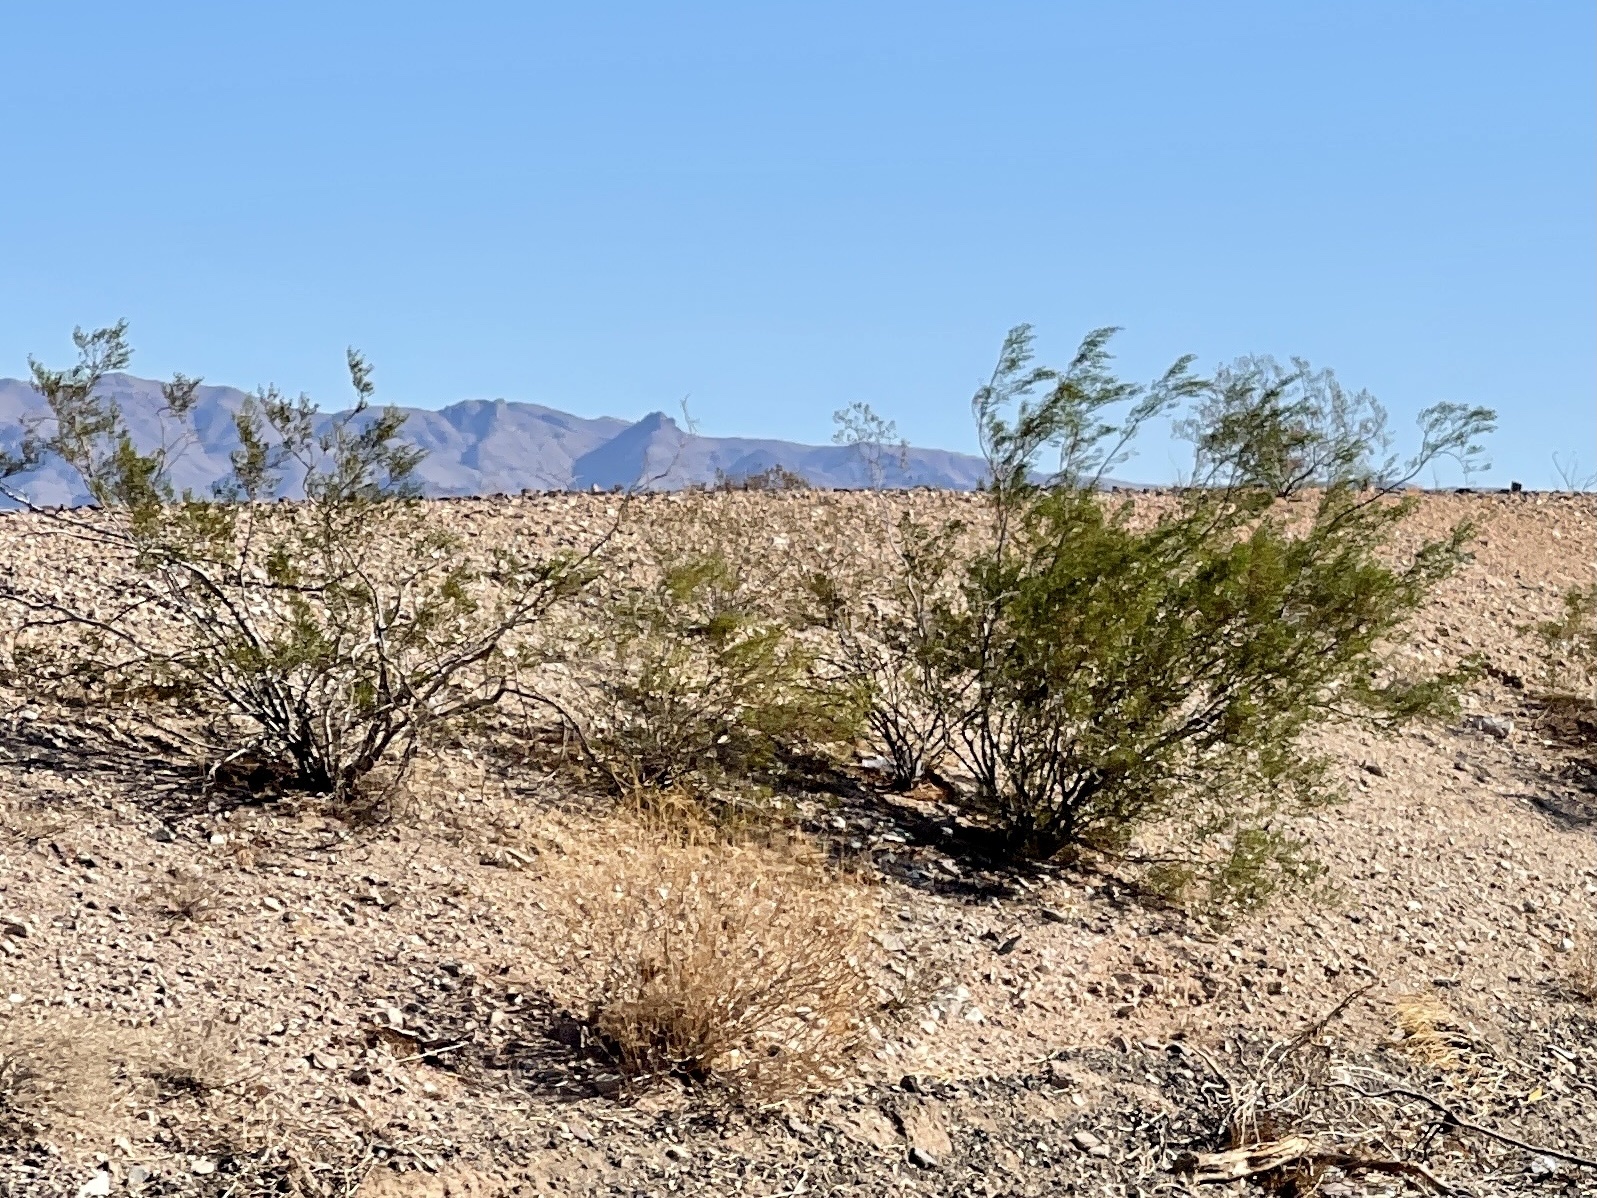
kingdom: Plantae
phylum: Tracheophyta
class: Magnoliopsida
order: Zygophyllales
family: Zygophyllaceae
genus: Larrea
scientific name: Larrea tridentata
